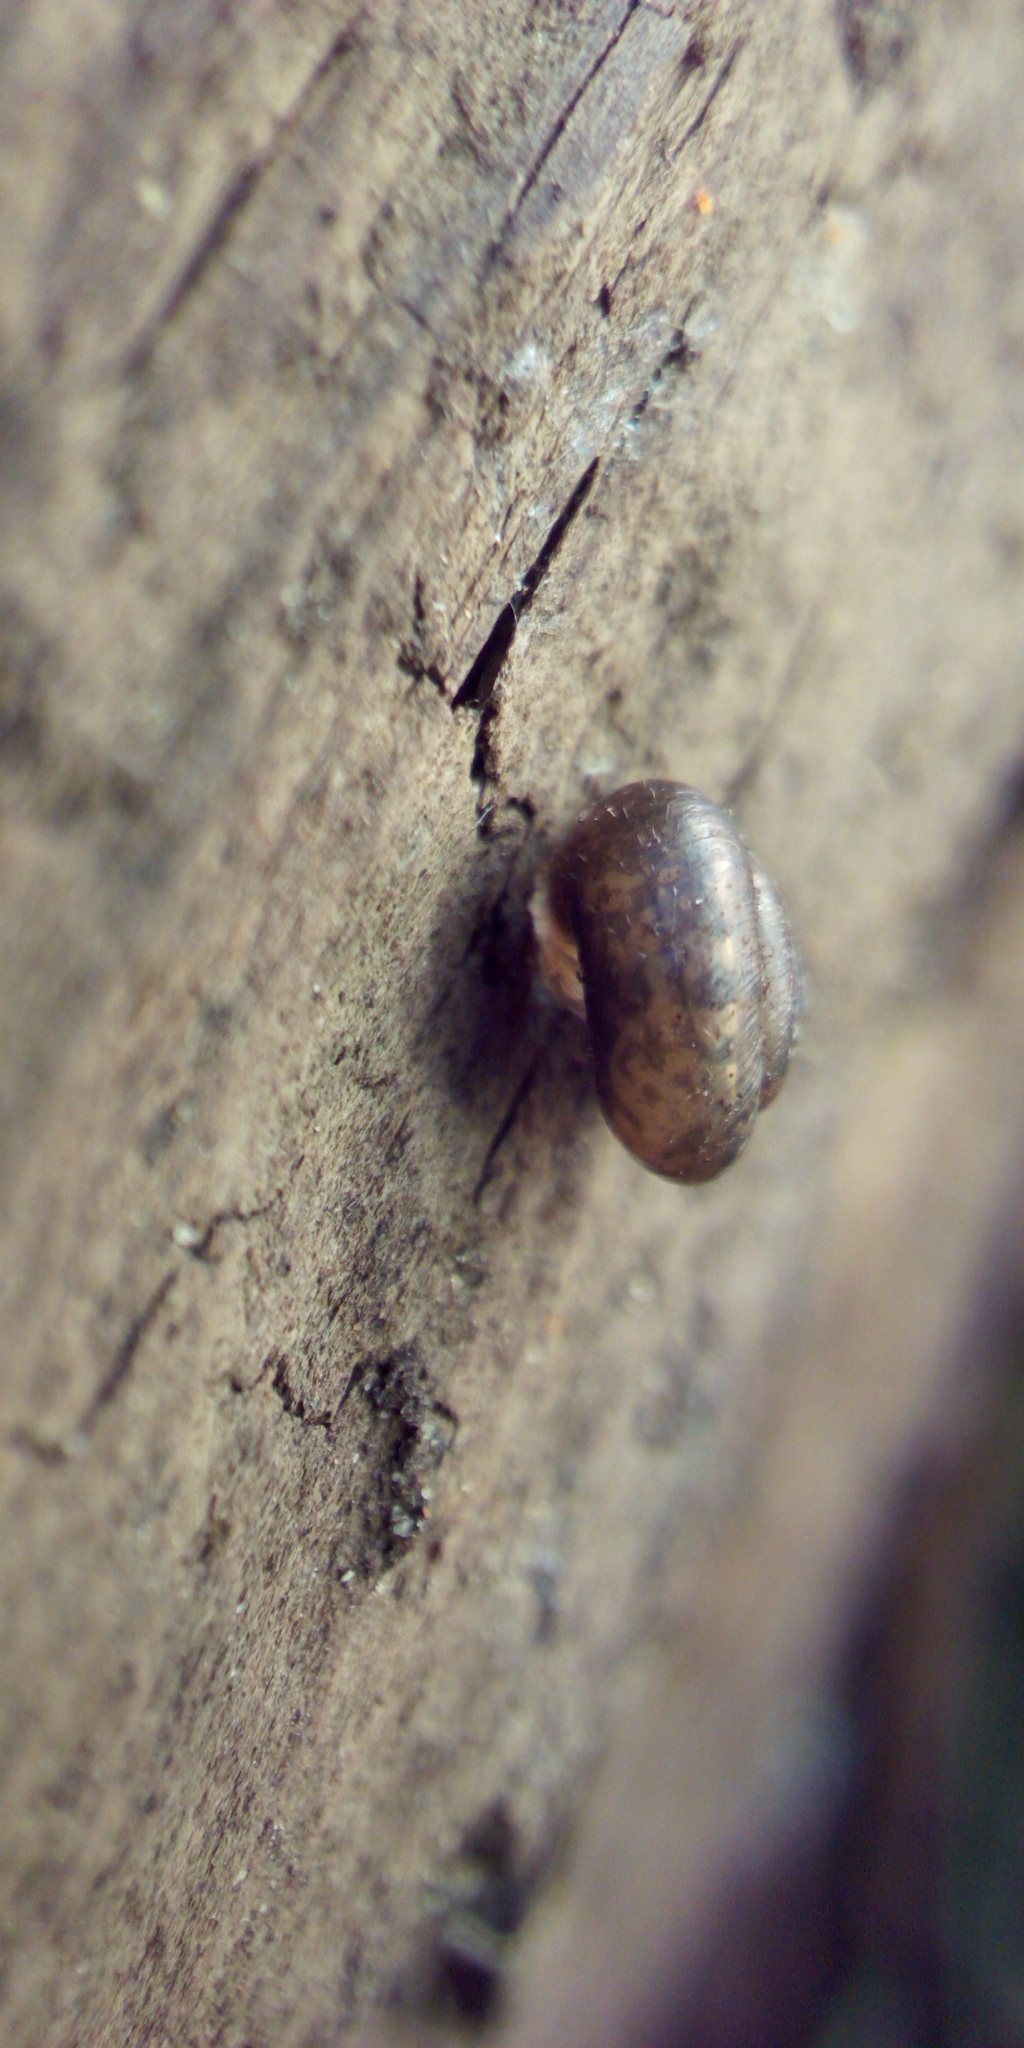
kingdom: Animalia
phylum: Mollusca
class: Gastropoda
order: Stylommatophora
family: Hygromiidae
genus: Trochulus
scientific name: Trochulus hispidus
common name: Hairy snail
